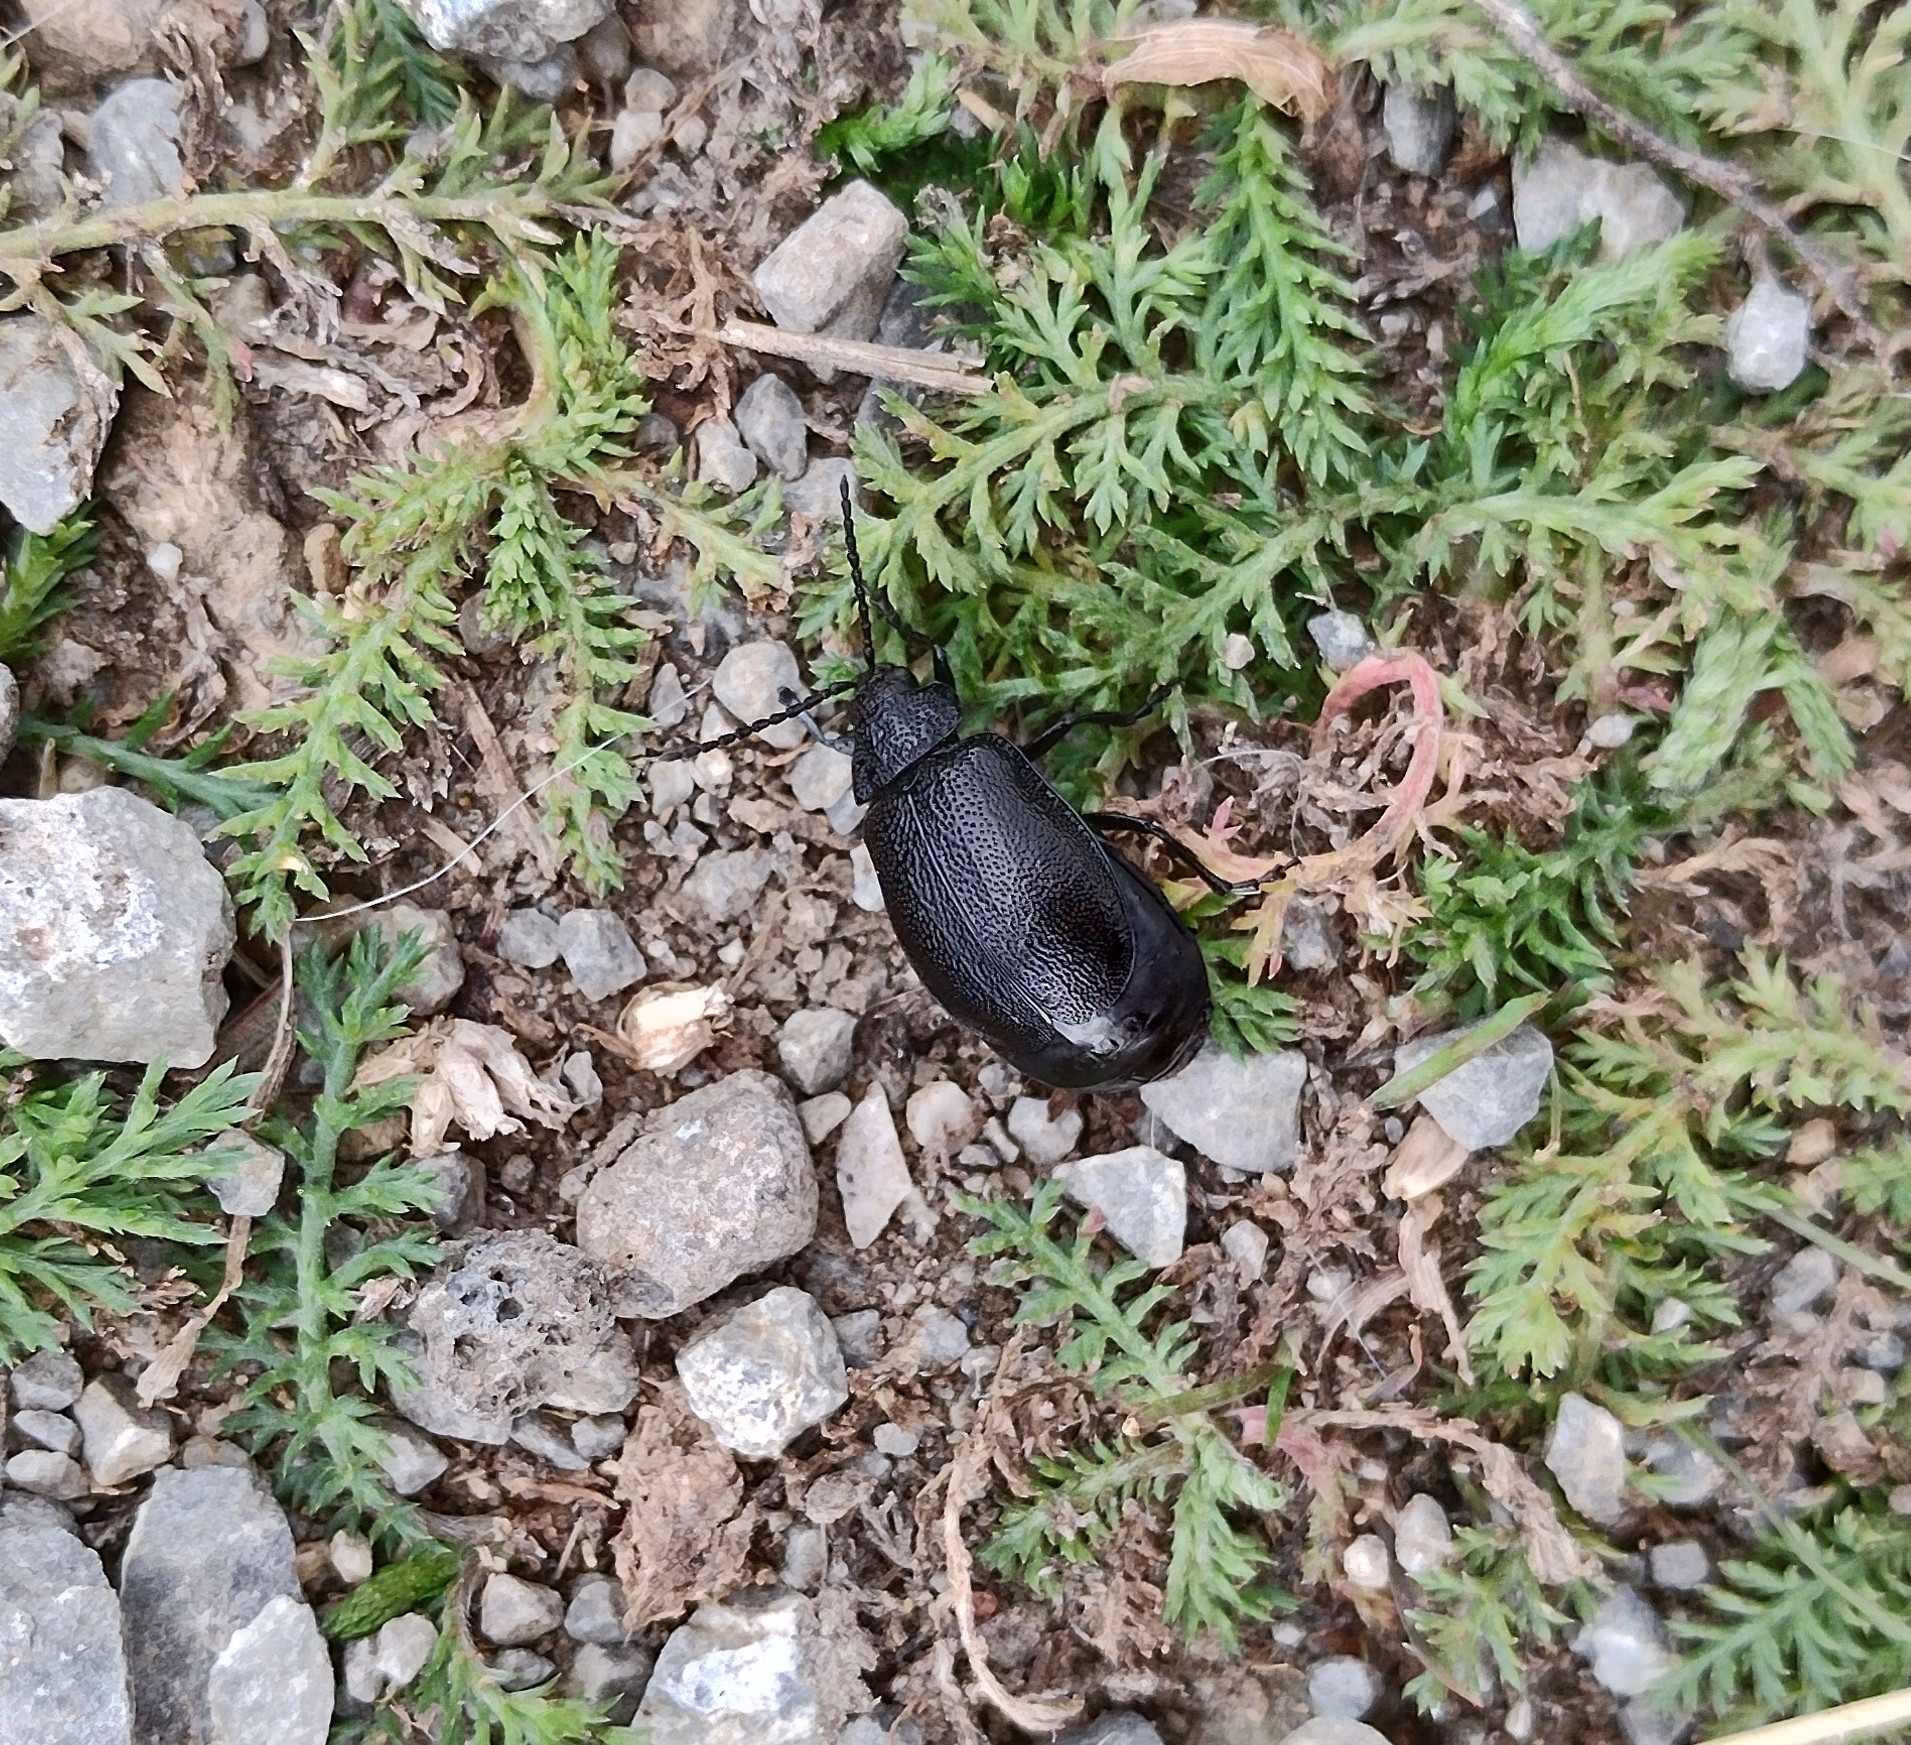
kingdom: Animalia
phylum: Arthropoda
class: Insecta
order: Coleoptera
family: Chrysomelidae
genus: Galeruca
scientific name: Galeruca tanaceti
